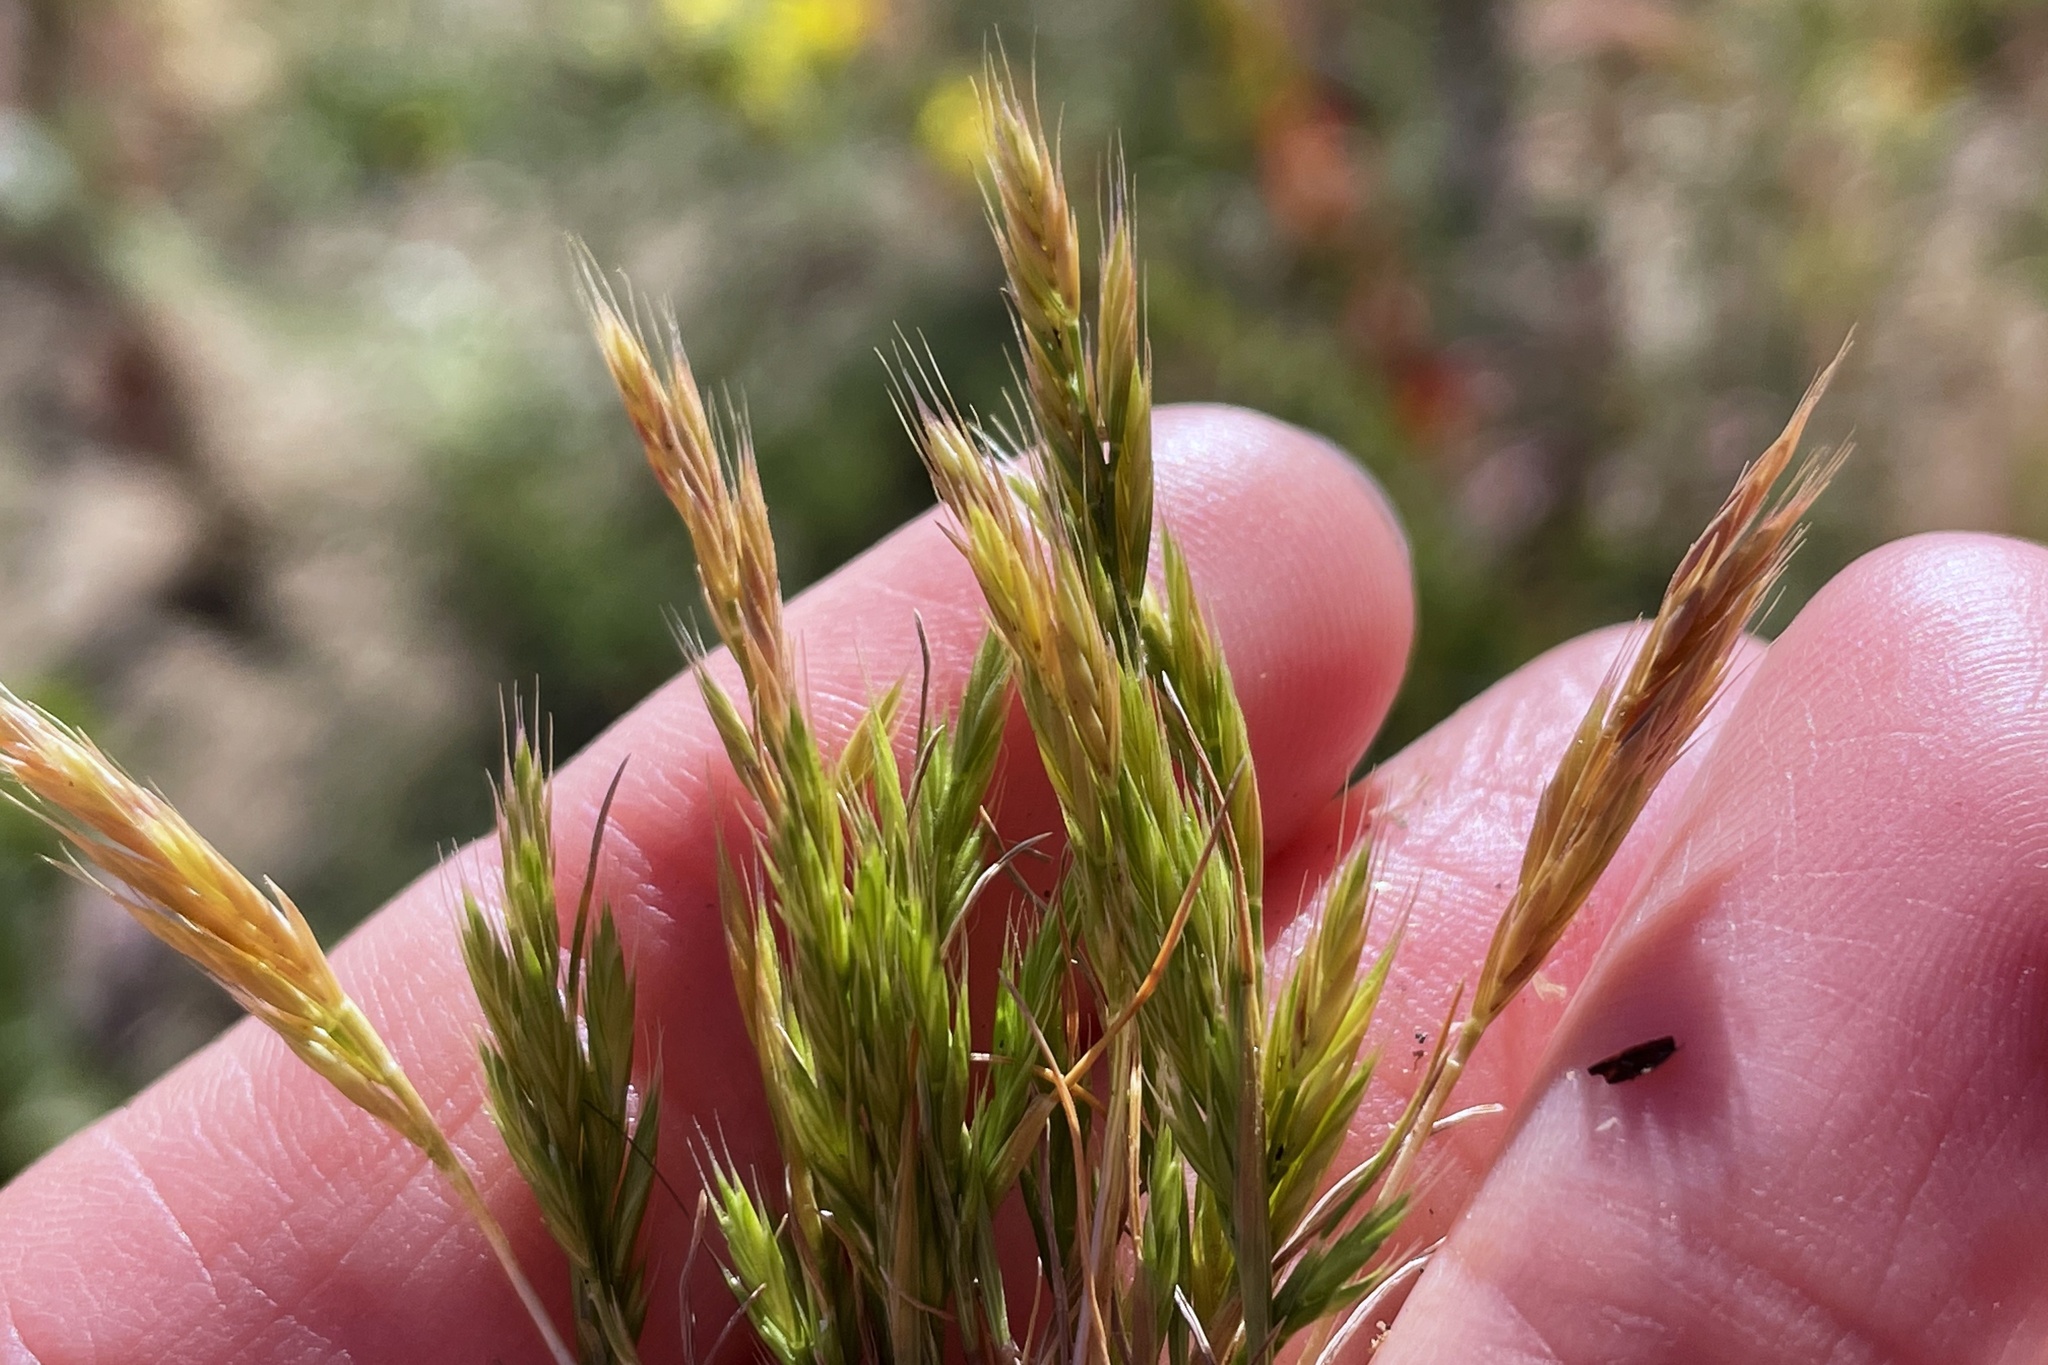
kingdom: Plantae
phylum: Tracheophyta
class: Liliopsida
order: Poales
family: Poaceae
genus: Festuca
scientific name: Festuca octoflora
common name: Sixweeks grass
